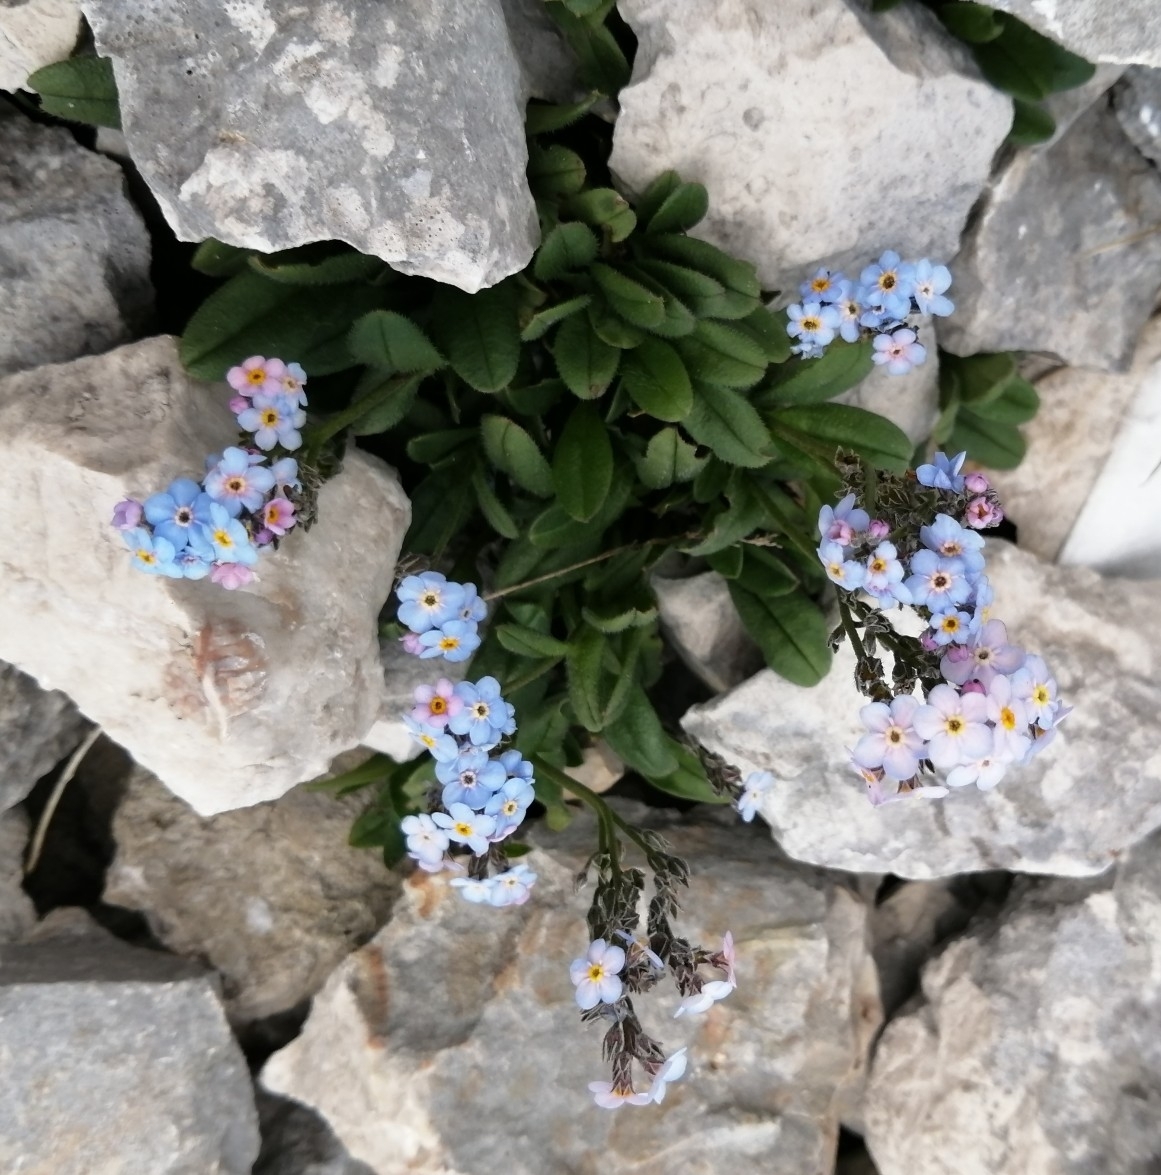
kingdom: Plantae
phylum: Tracheophyta
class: Magnoliopsida
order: Boraginales
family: Boraginaceae
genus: Myosotis
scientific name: Myosotis alpestris
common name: Alpine forget-me-not
